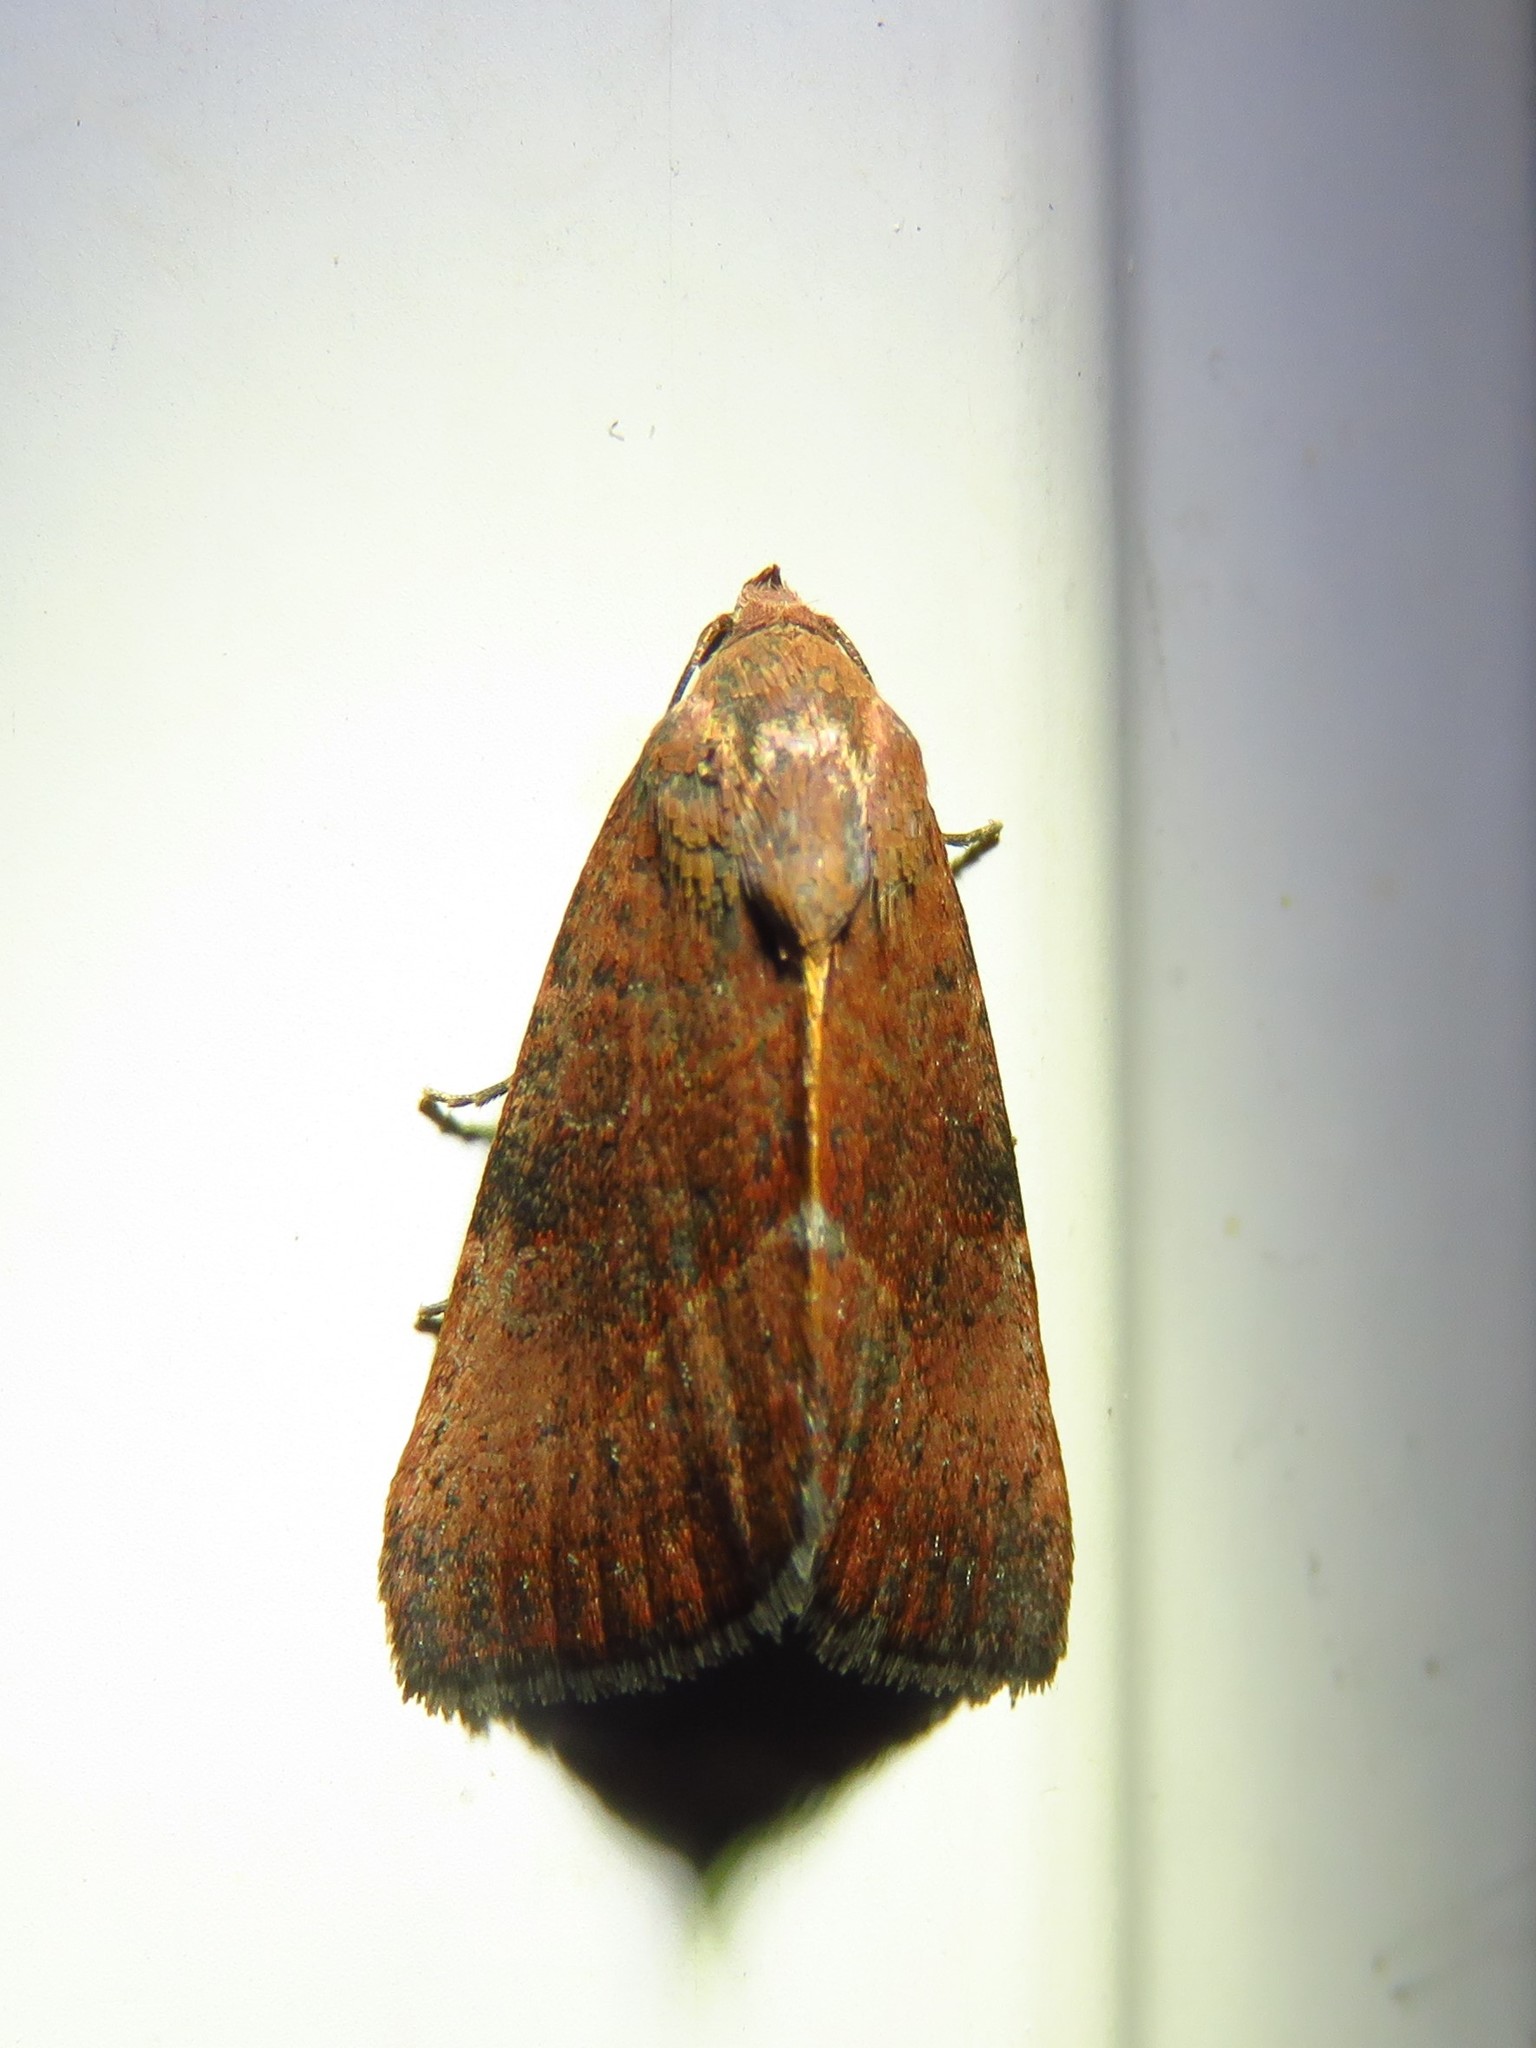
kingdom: Animalia
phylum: Arthropoda
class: Insecta
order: Lepidoptera
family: Noctuidae
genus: Galgula
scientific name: Galgula partita
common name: Wedgeling
